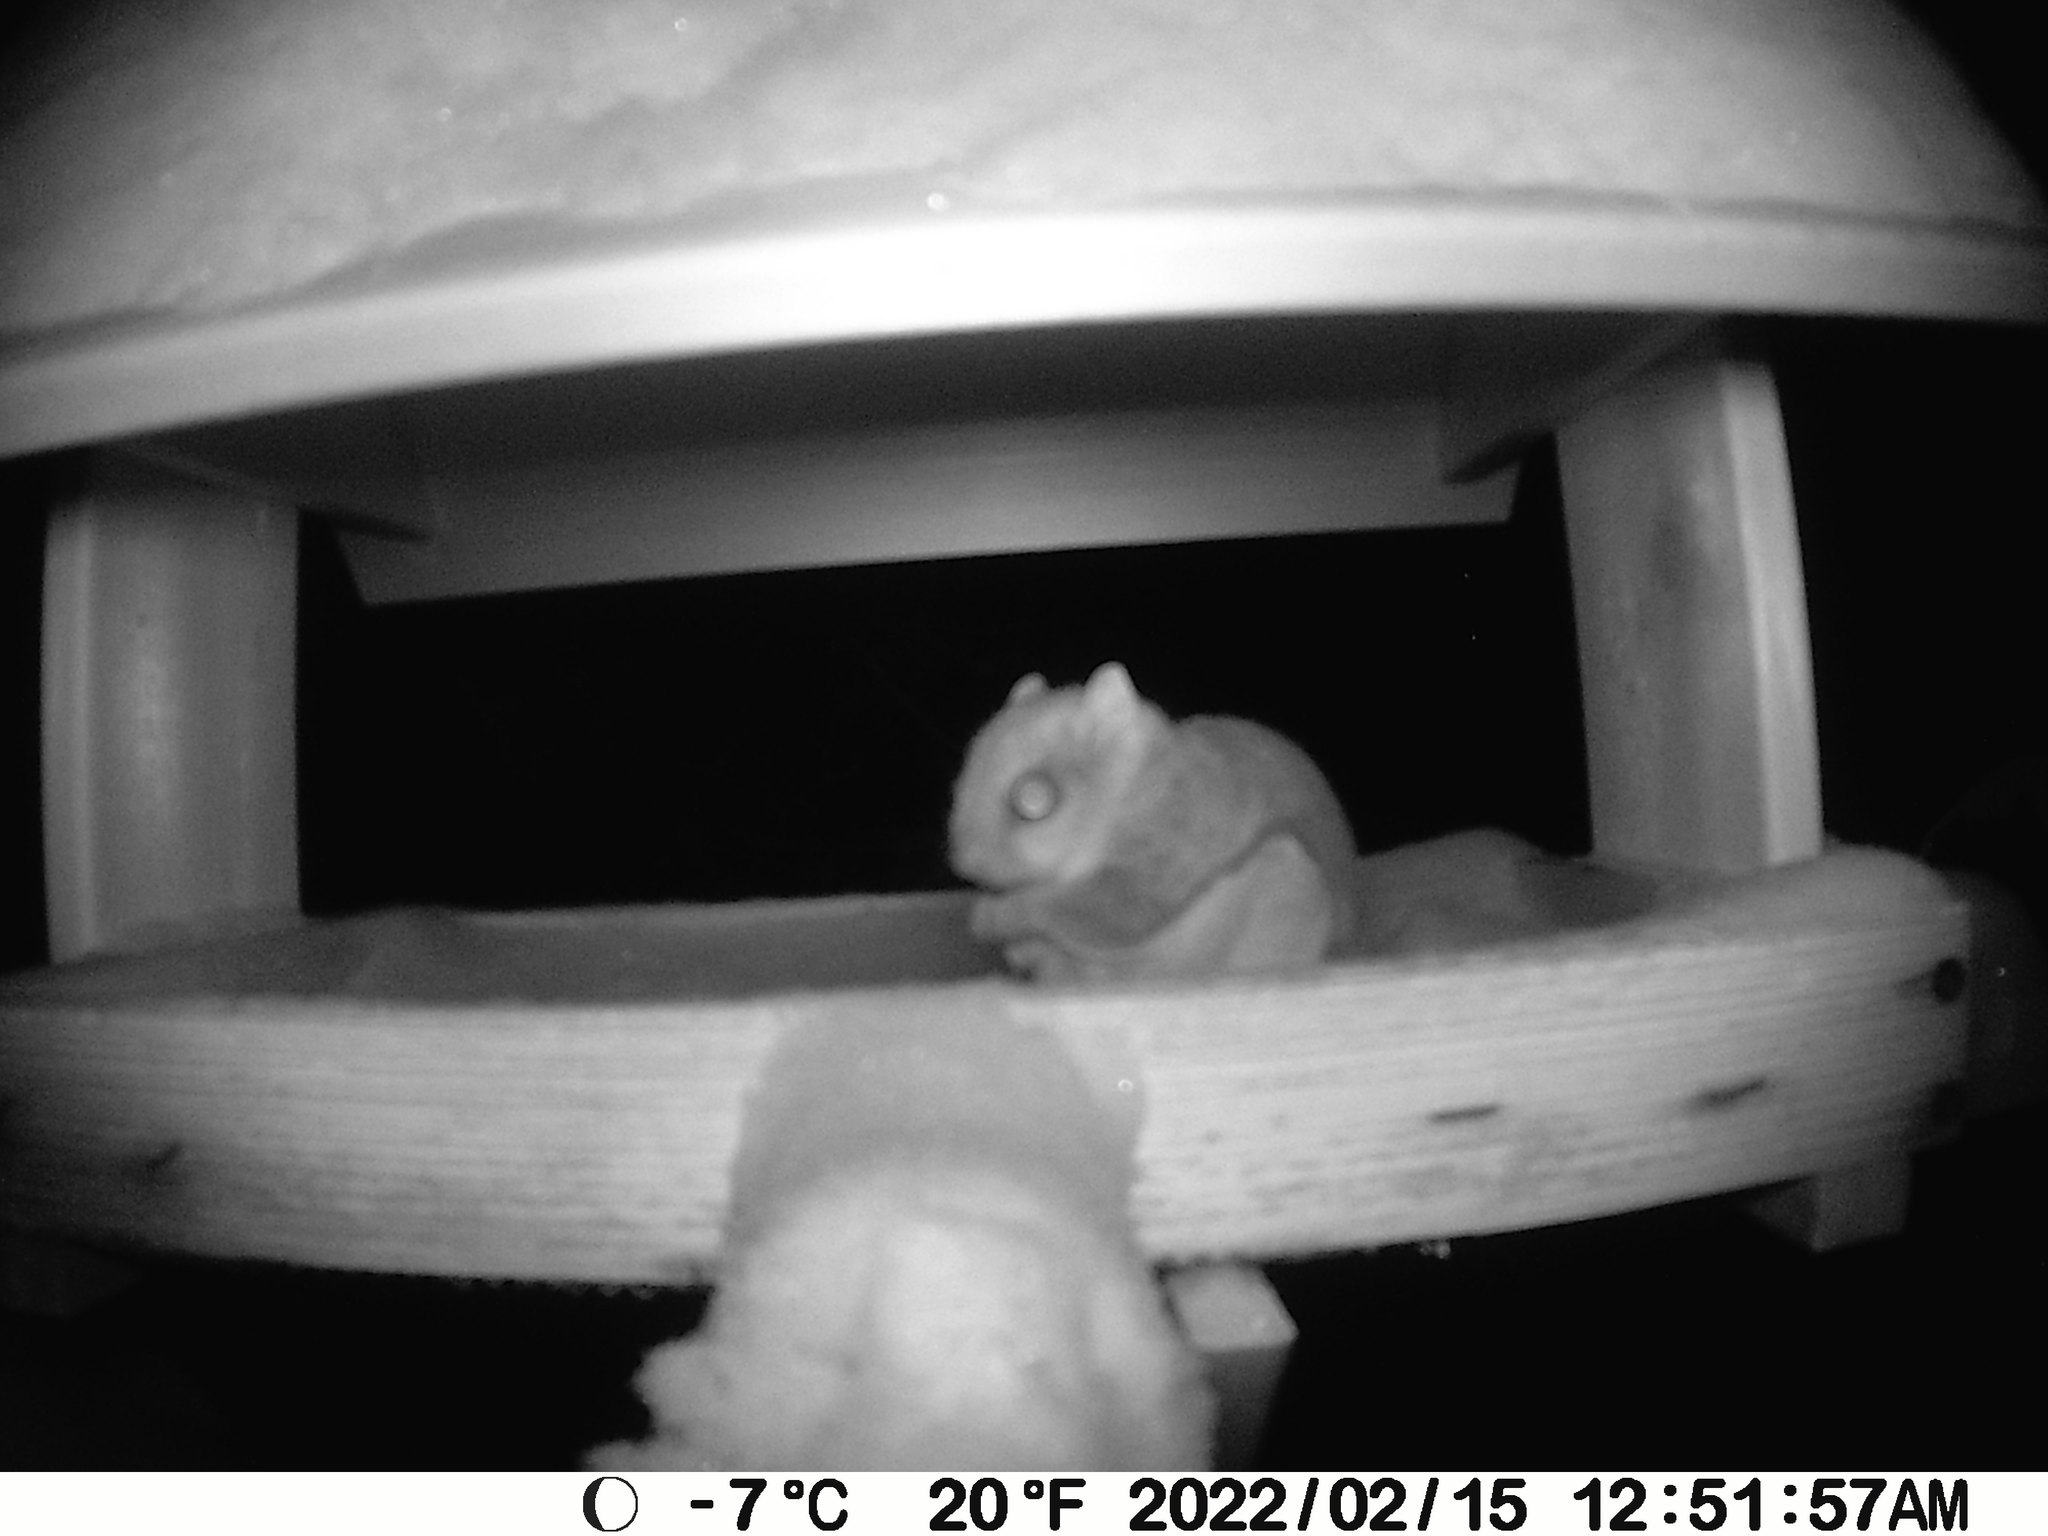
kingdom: Animalia
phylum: Chordata
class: Mammalia
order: Rodentia
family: Sciuridae
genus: Glaucomys
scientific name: Glaucomys sabrinus
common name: Northern flying squirrel
